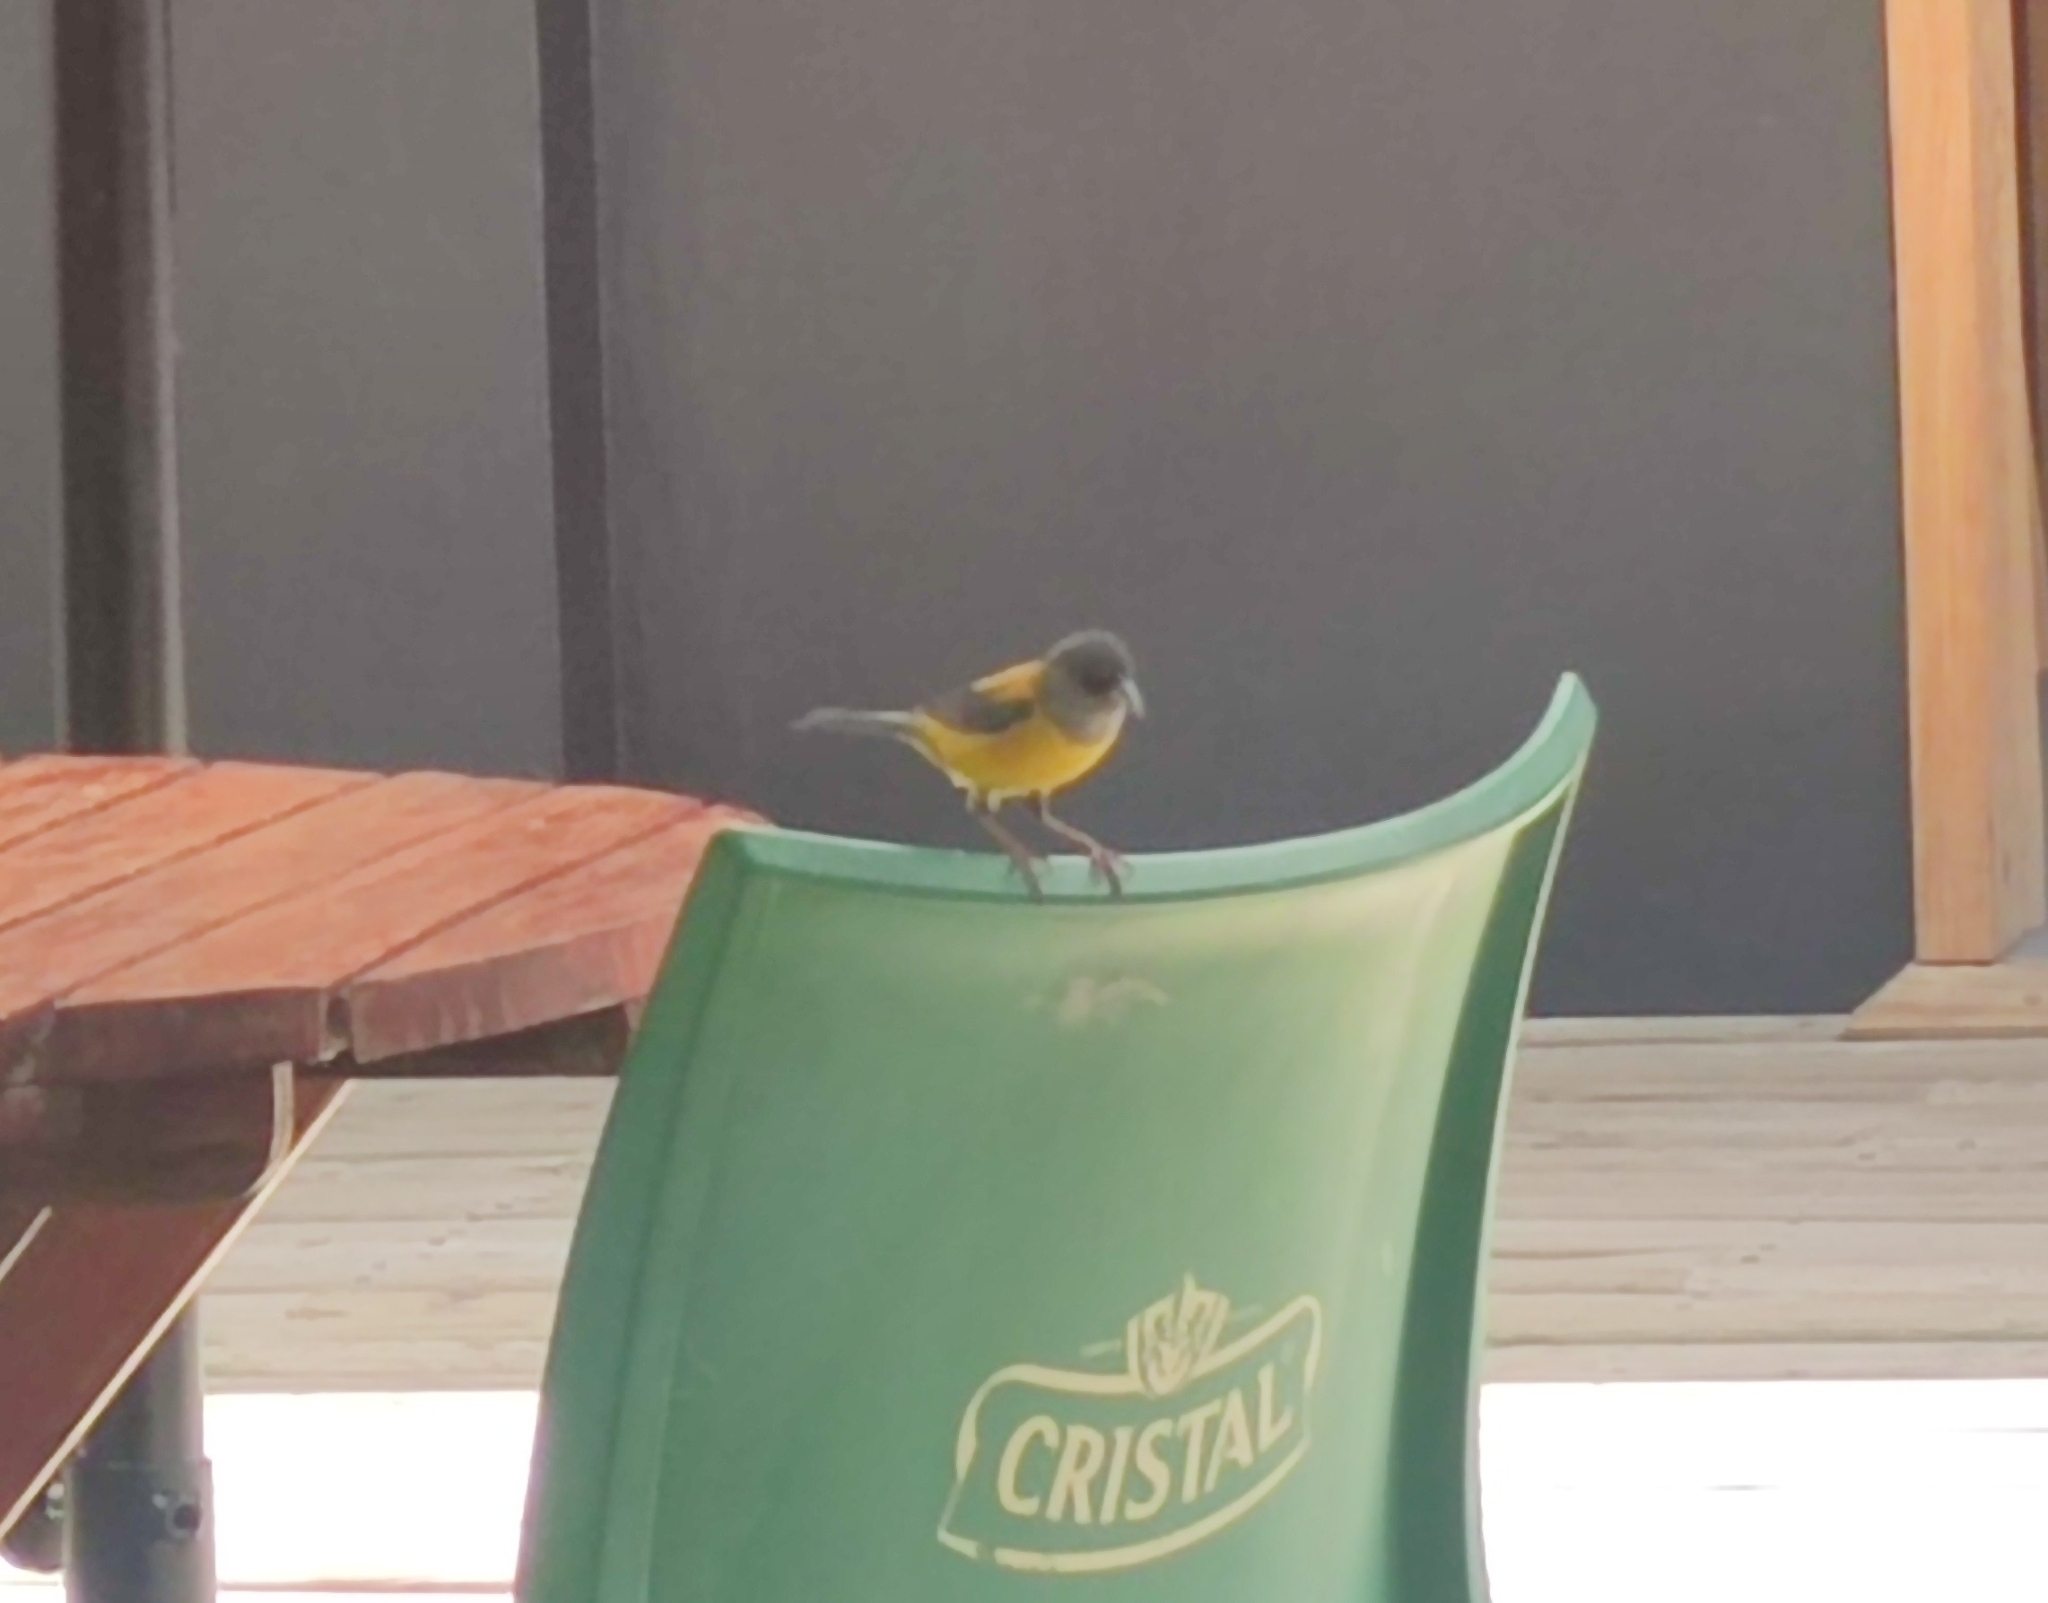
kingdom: Animalia
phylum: Chordata
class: Aves
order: Passeriformes
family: Thraupidae
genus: Phrygilus
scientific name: Phrygilus patagonicus
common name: Patagonian sierra finch
